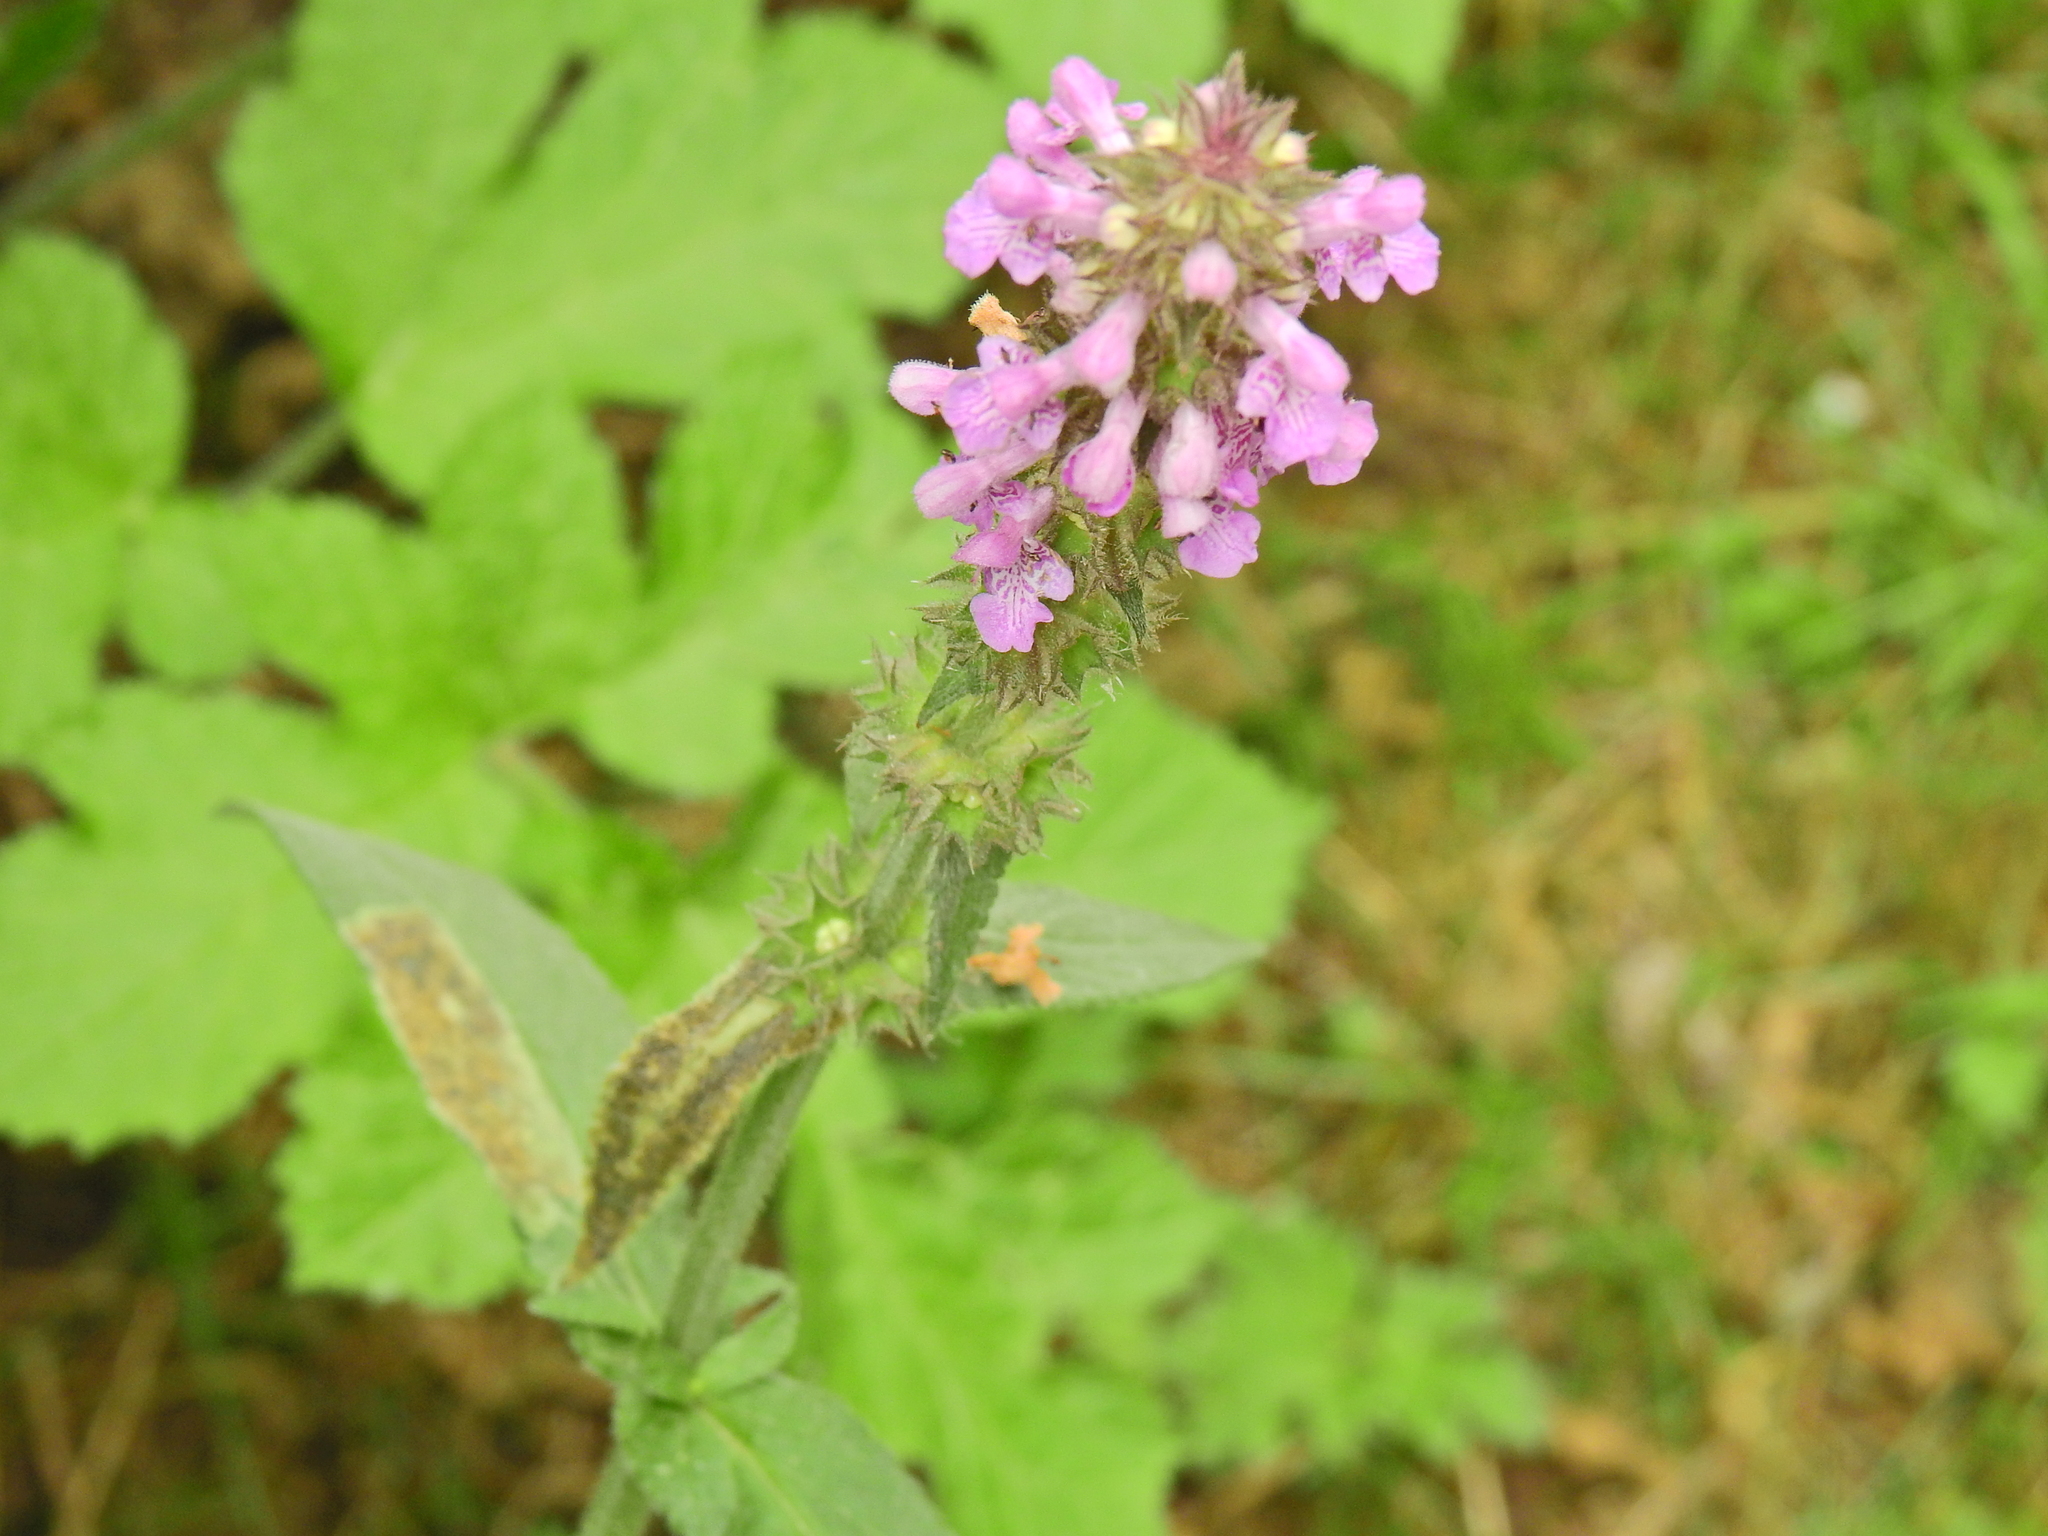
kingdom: Plantae
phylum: Tracheophyta
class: Magnoliopsida
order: Lamiales
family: Lamiaceae
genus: Stachys
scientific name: Stachys palustris
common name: Marsh woundwort
